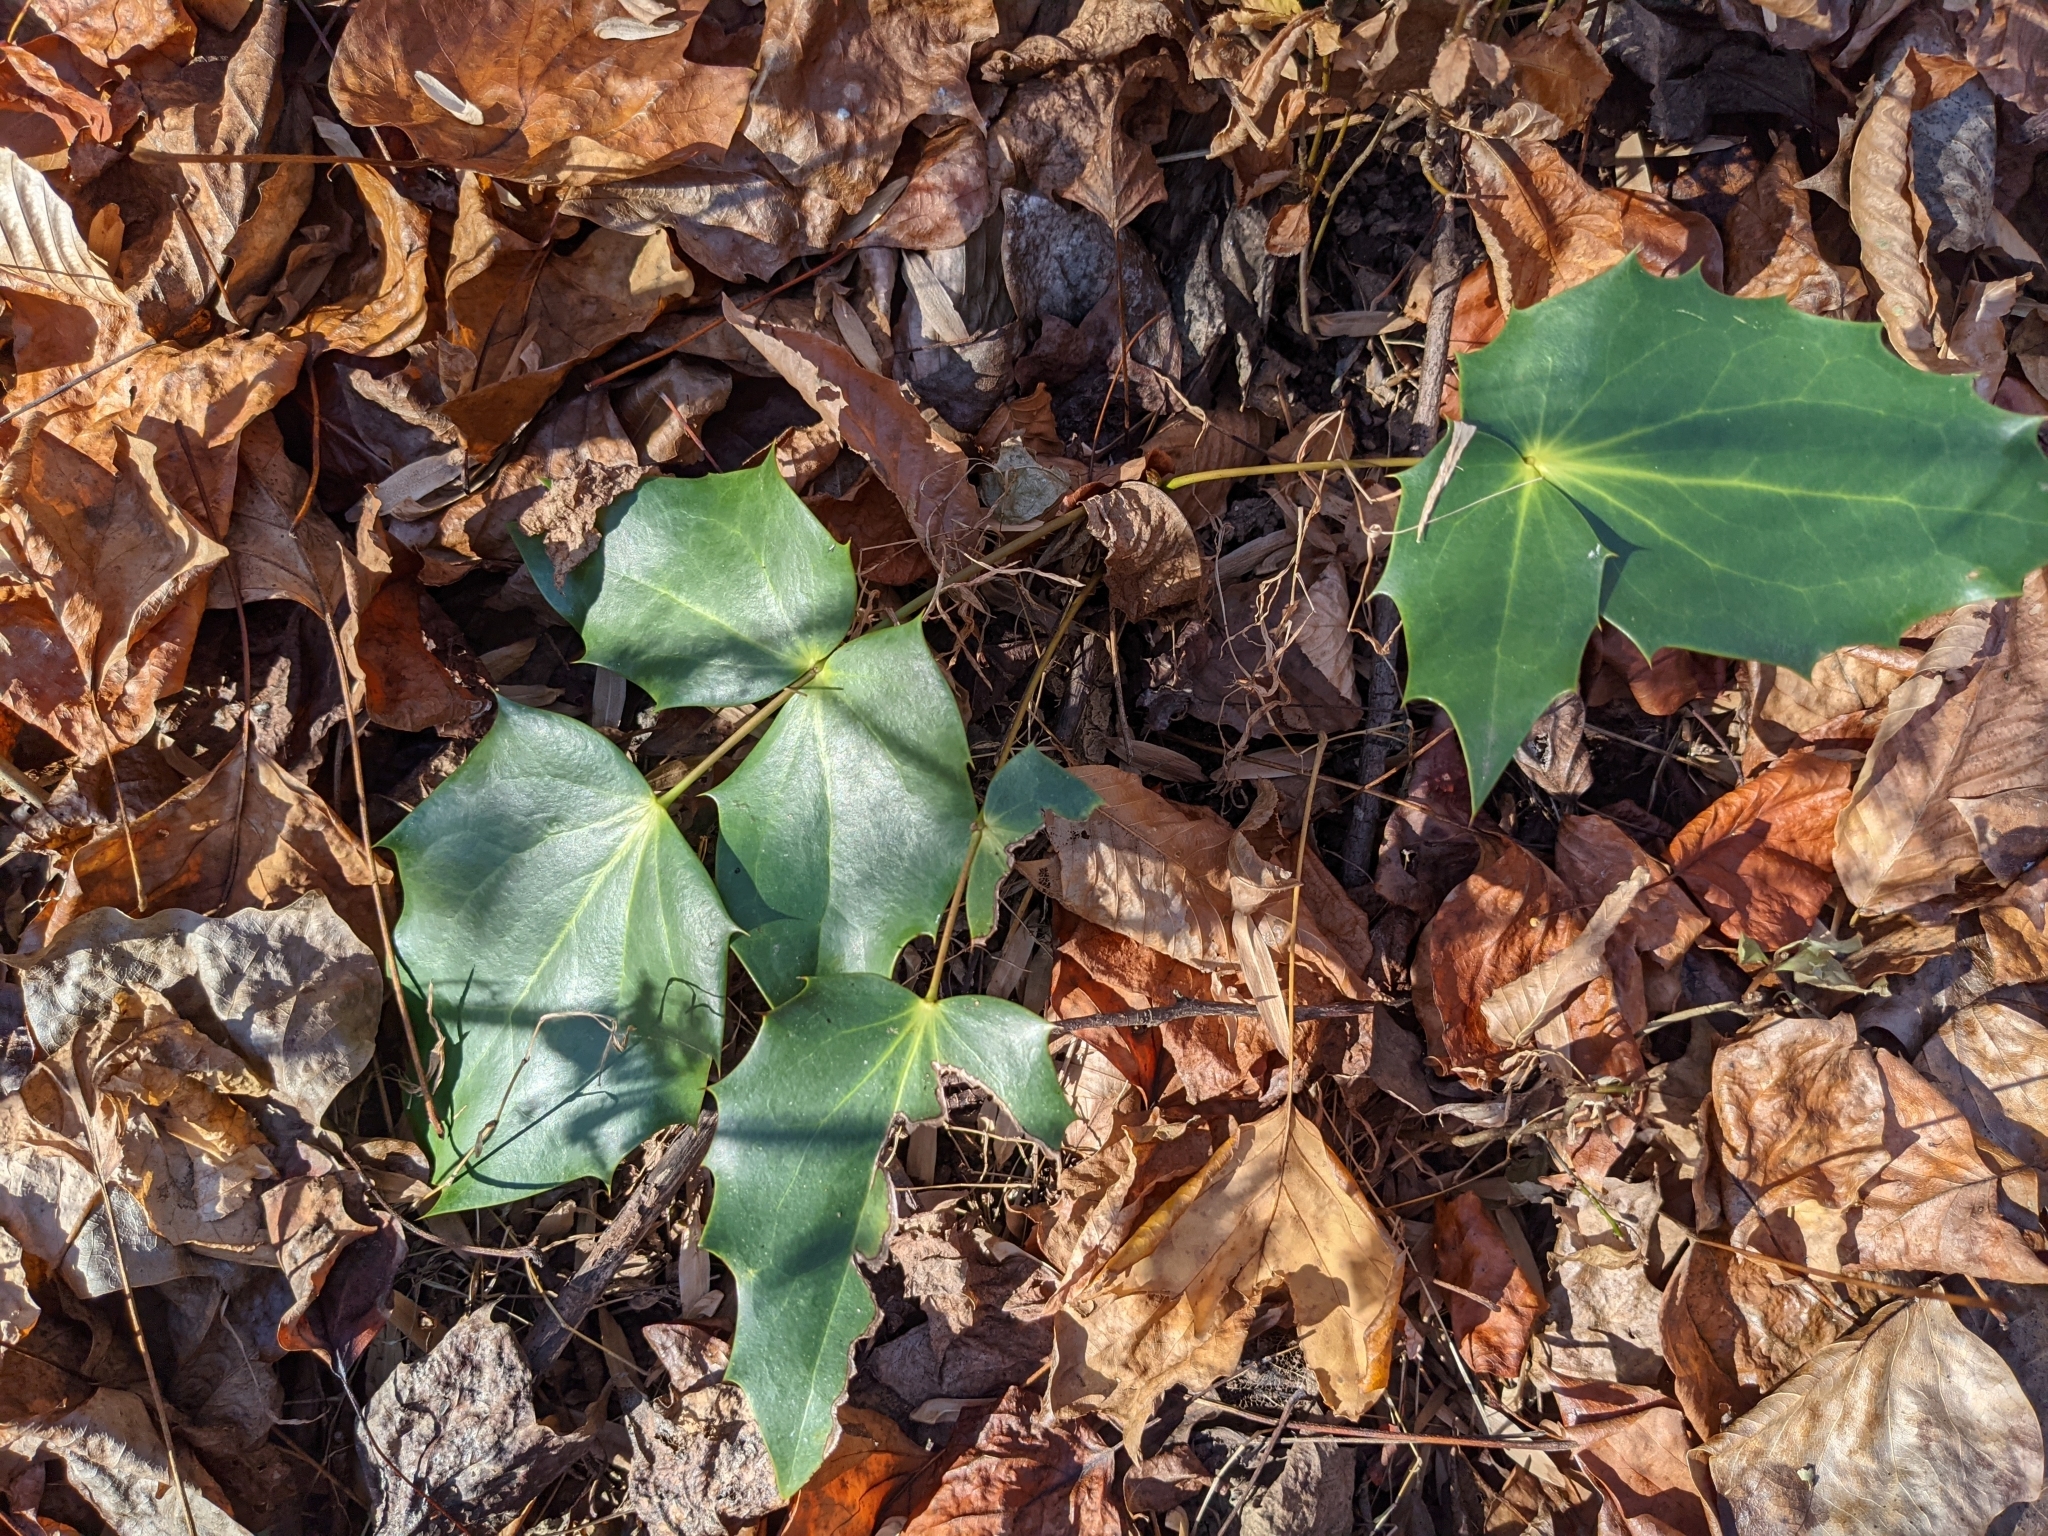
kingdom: Plantae
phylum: Tracheophyta
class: Magnoliopsida
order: Ranunculales
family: Berberidaceae
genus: Mahonia
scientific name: Mahonia bealei
